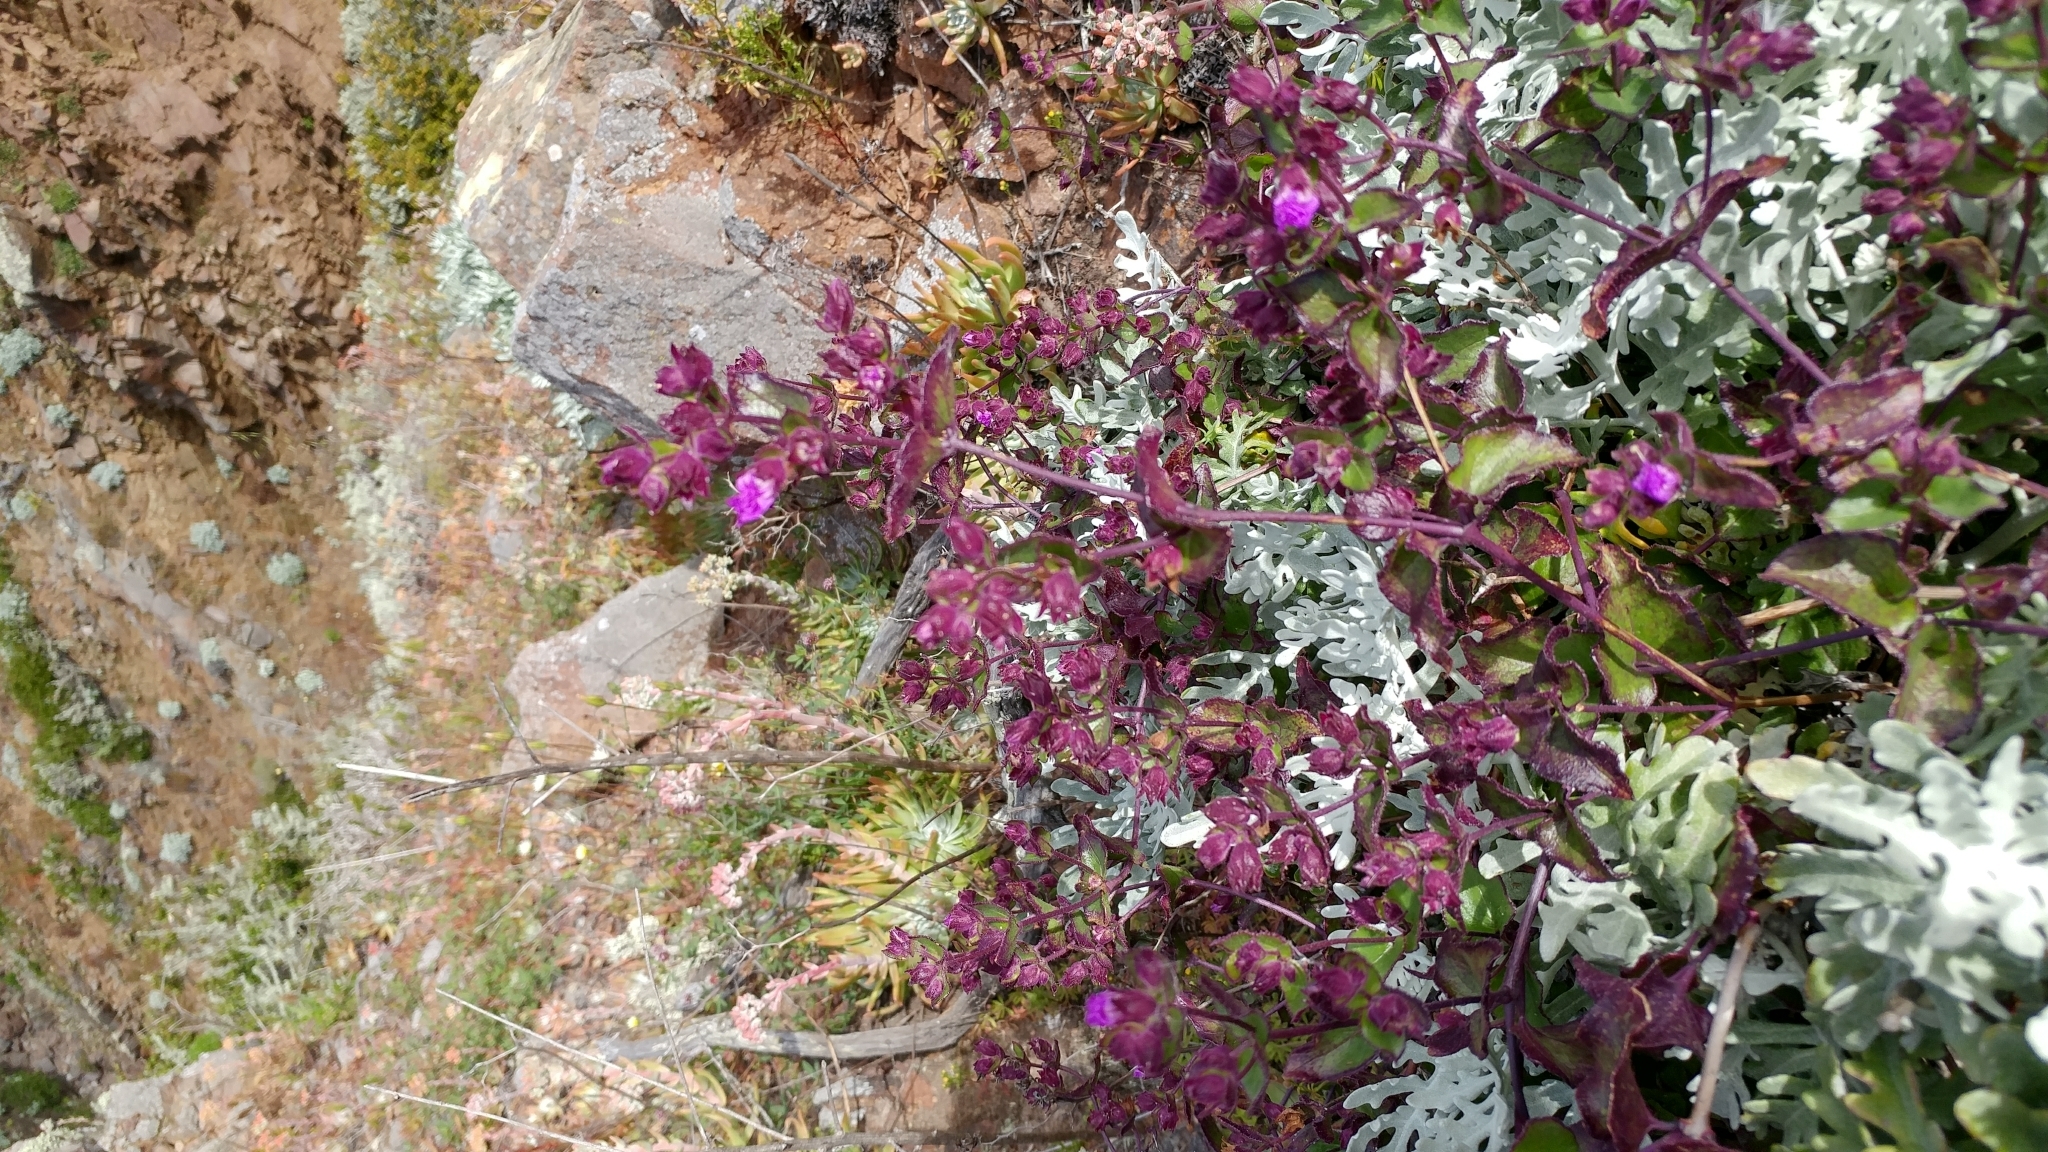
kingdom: Plantae
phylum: Tracheophyta
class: Magnoliopsida
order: Caryophyllales
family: Nyctaginaceae
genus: Mirabilis
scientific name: Mirabilis laevis
